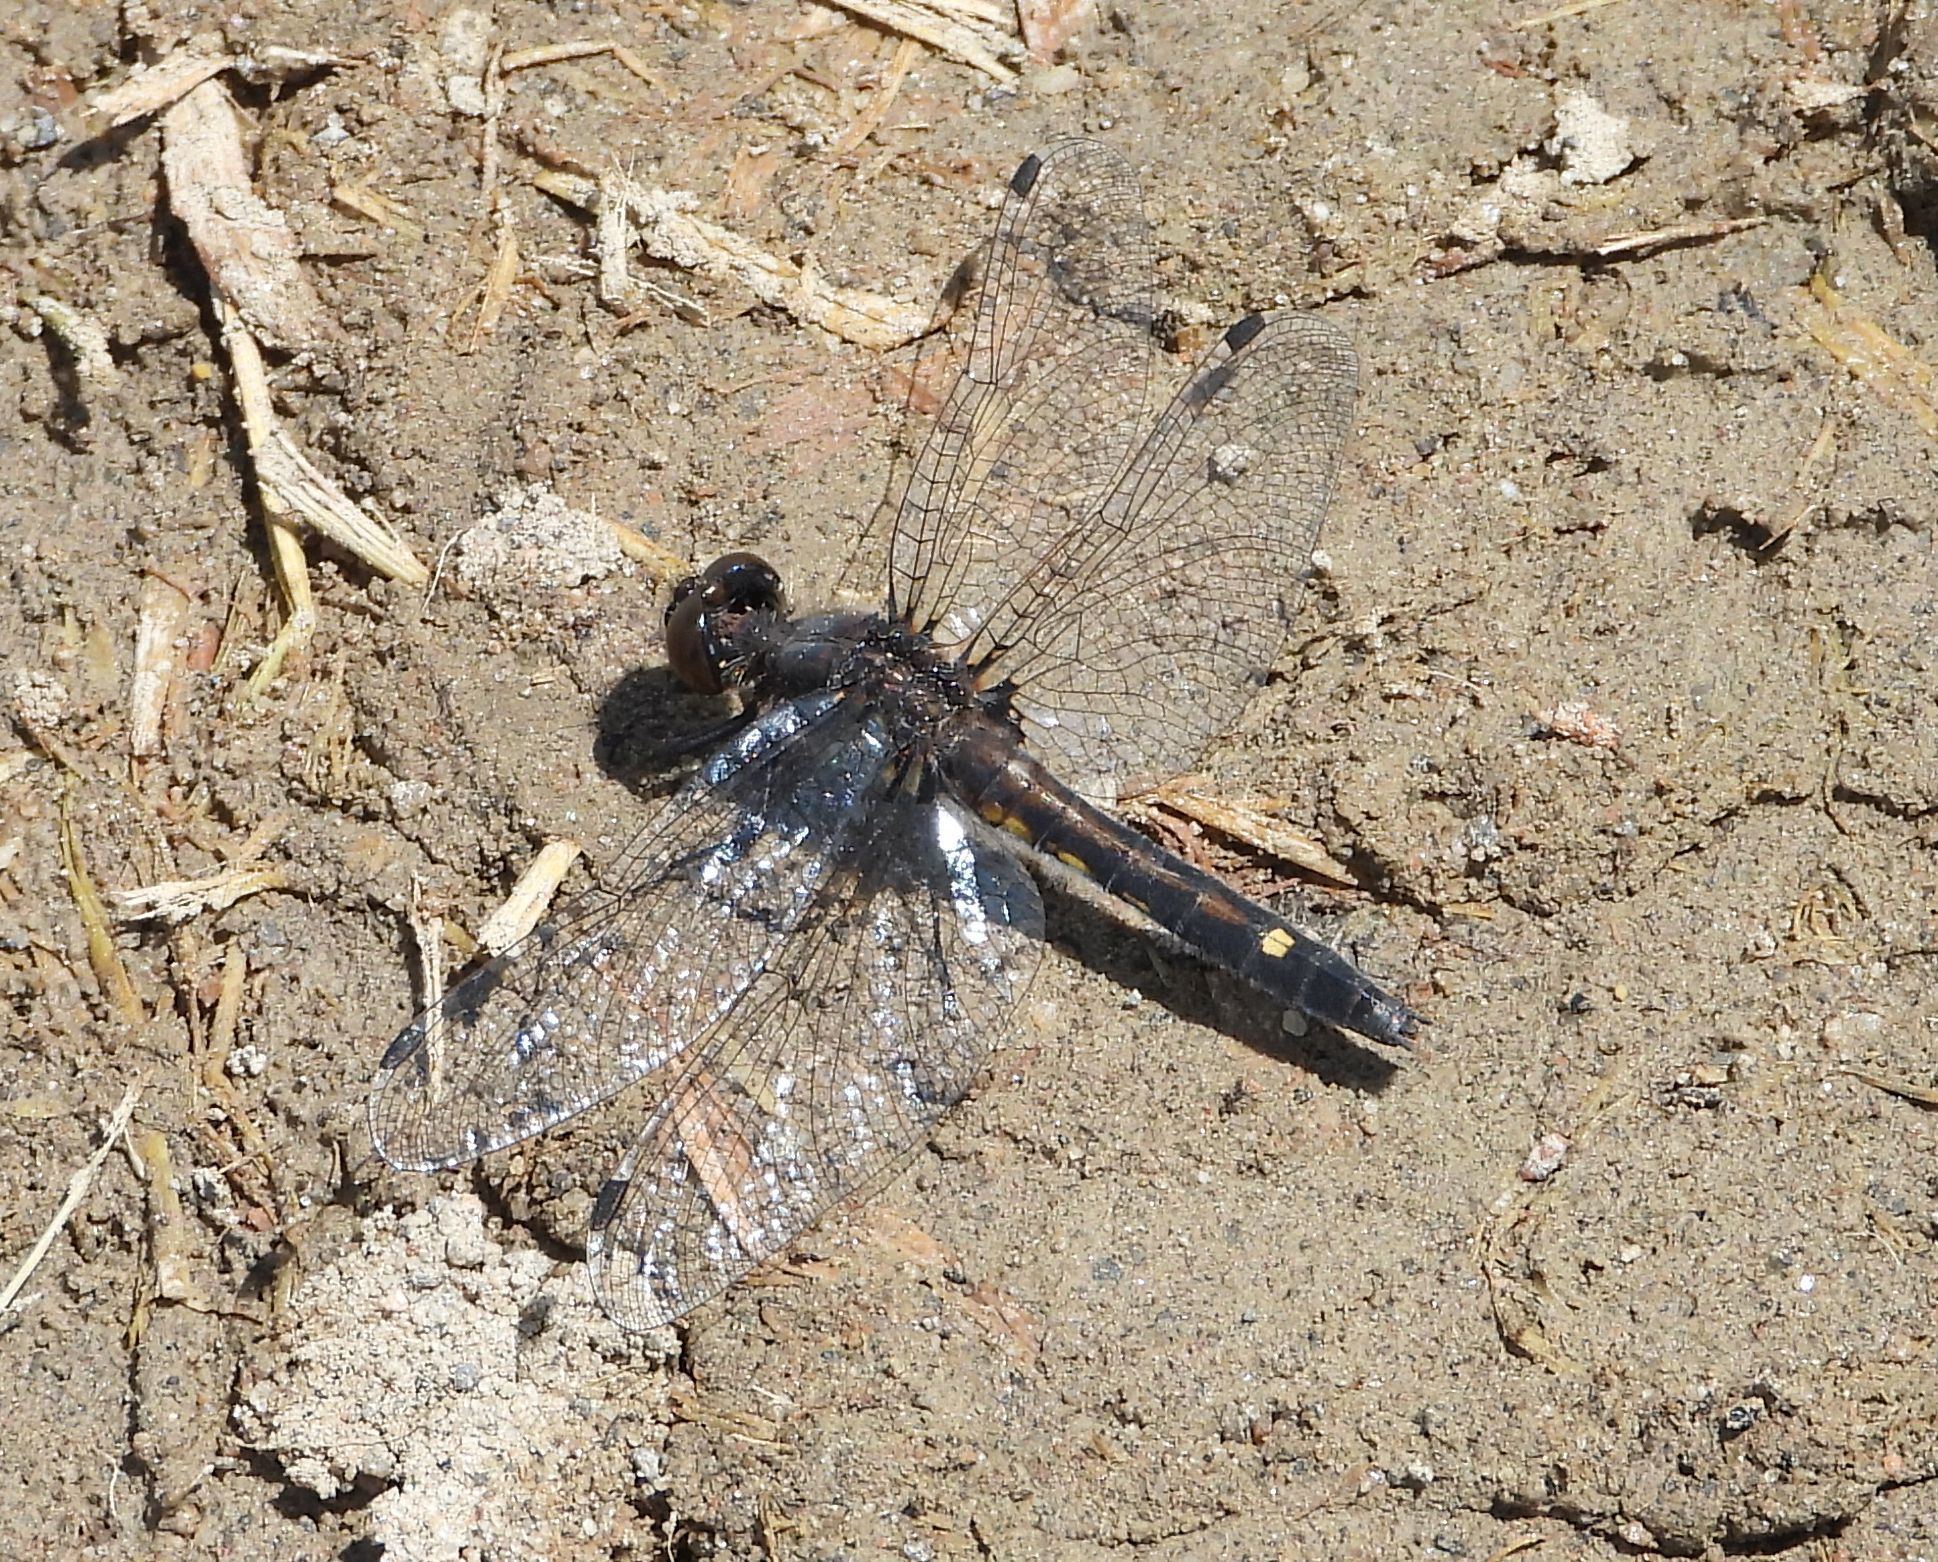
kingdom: Animalia
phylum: Arthropoda
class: Insecta
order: Odonata
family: Libellulidae
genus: Leucorrhinia
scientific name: Leucorrhinia intacta
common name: Dot-tailed whiteface
